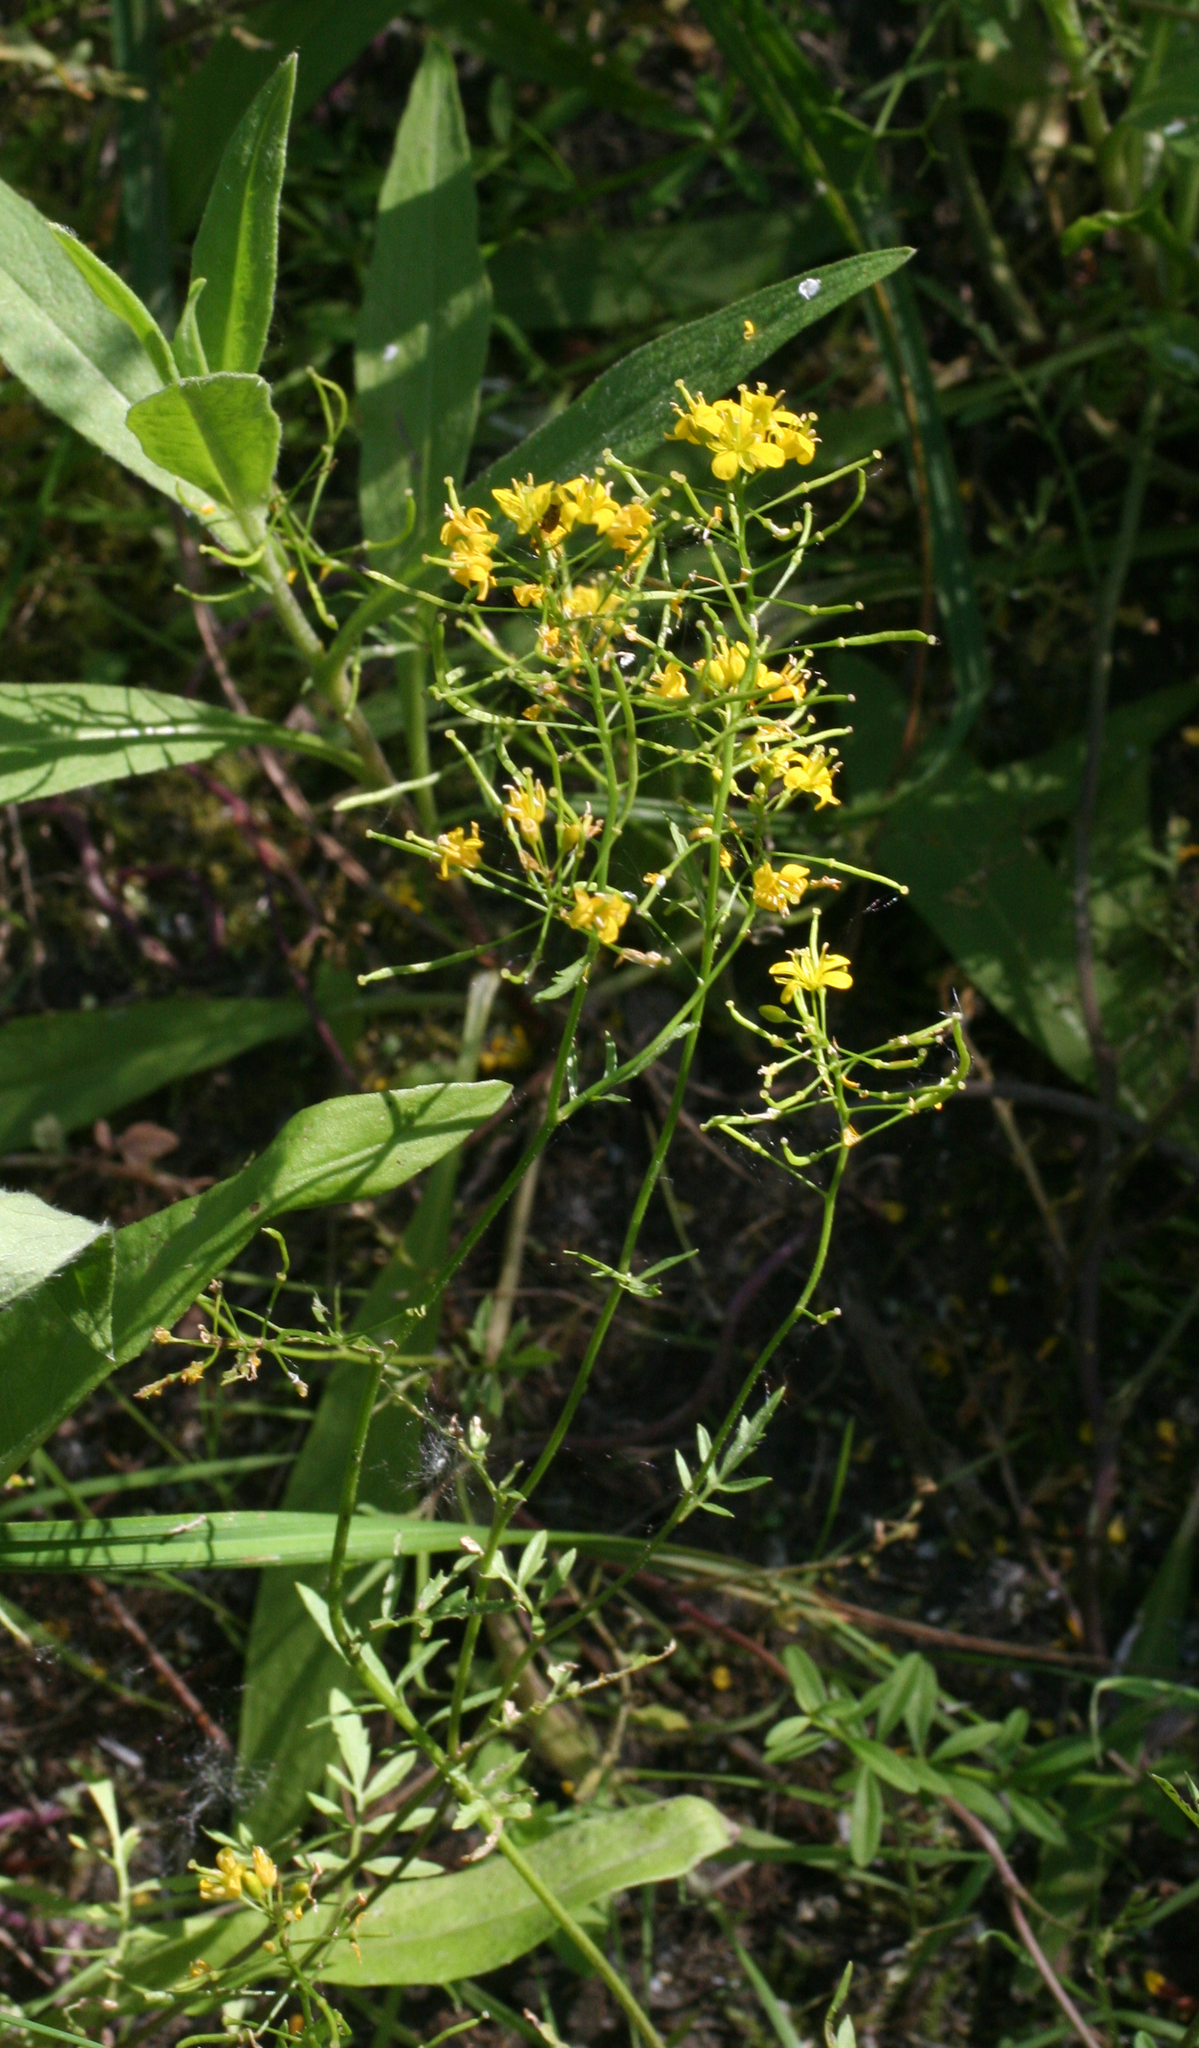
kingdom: Plantae
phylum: Tracheophyta
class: Magnoliopsida
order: Brassicales
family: Brassicaceae
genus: Rorippa
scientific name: Rorippa sylvestris
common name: Creeping yellowcress
